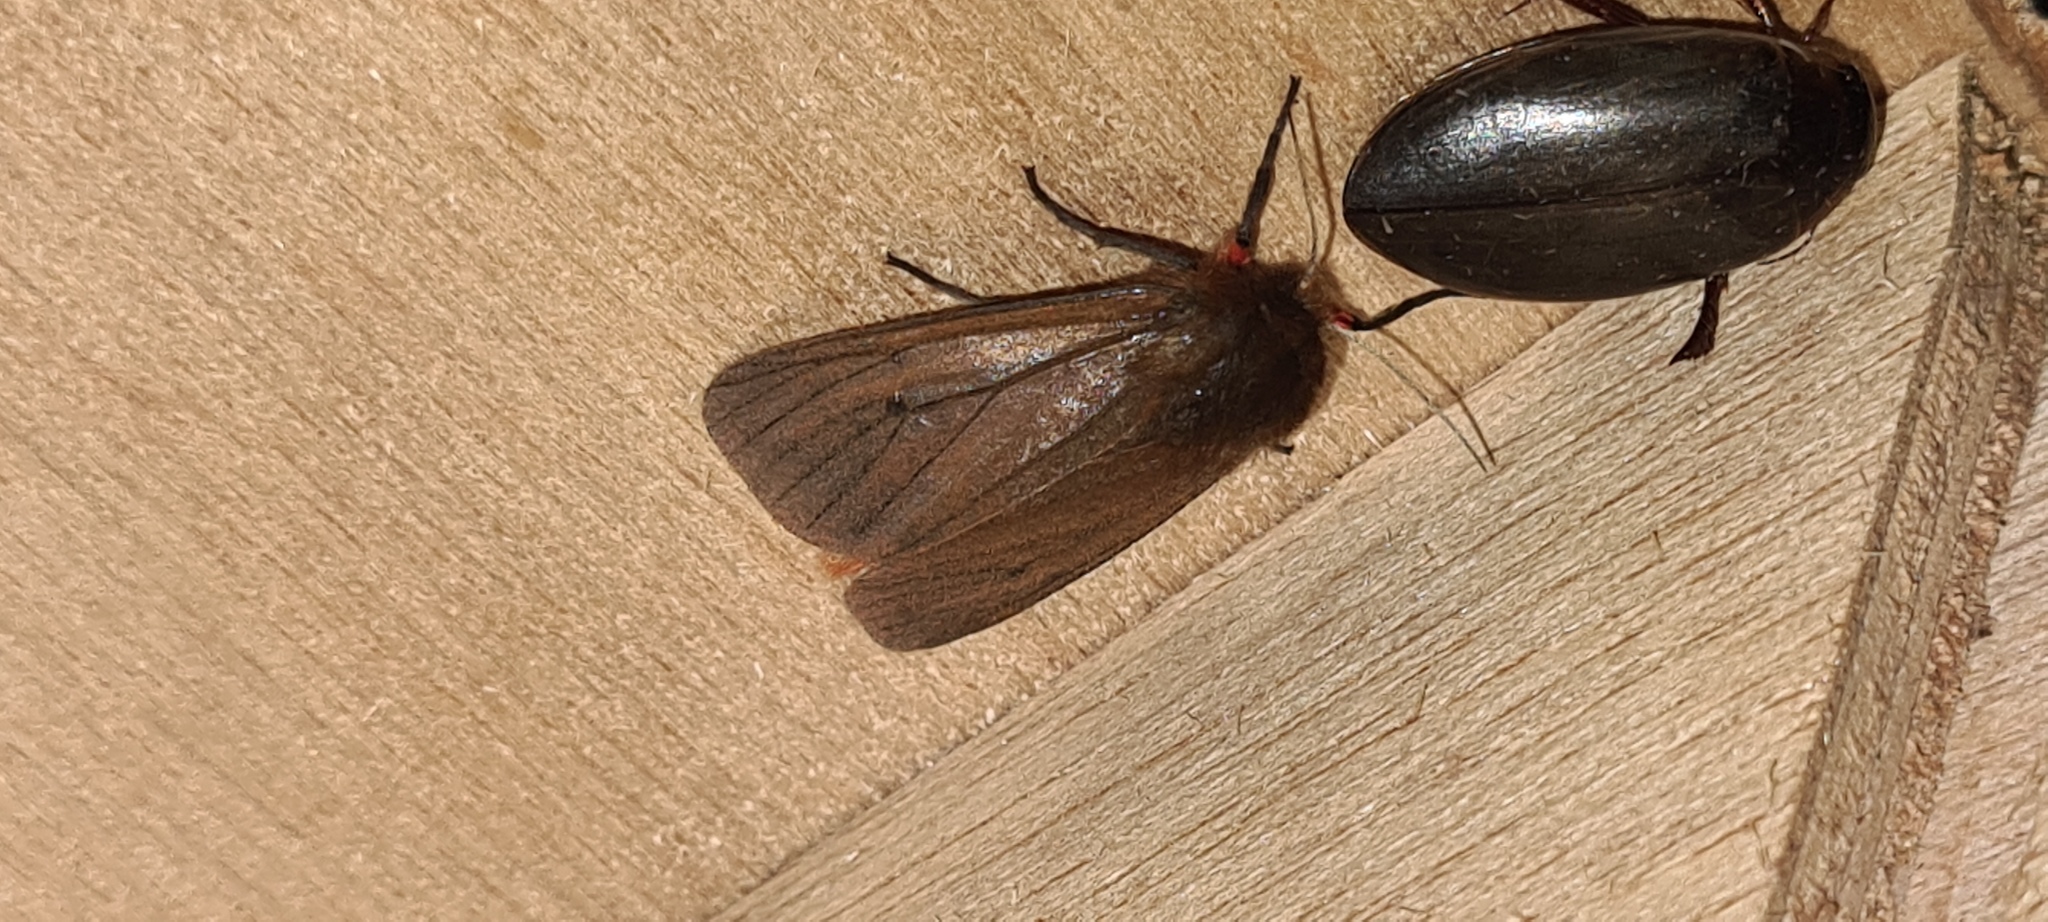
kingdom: Animalia
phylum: Arthropoda
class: Insecta
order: Lepidoptera
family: Erebidae
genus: Phragmatobia
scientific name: Phragmatobia fuliginosa
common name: Ruby tiger
